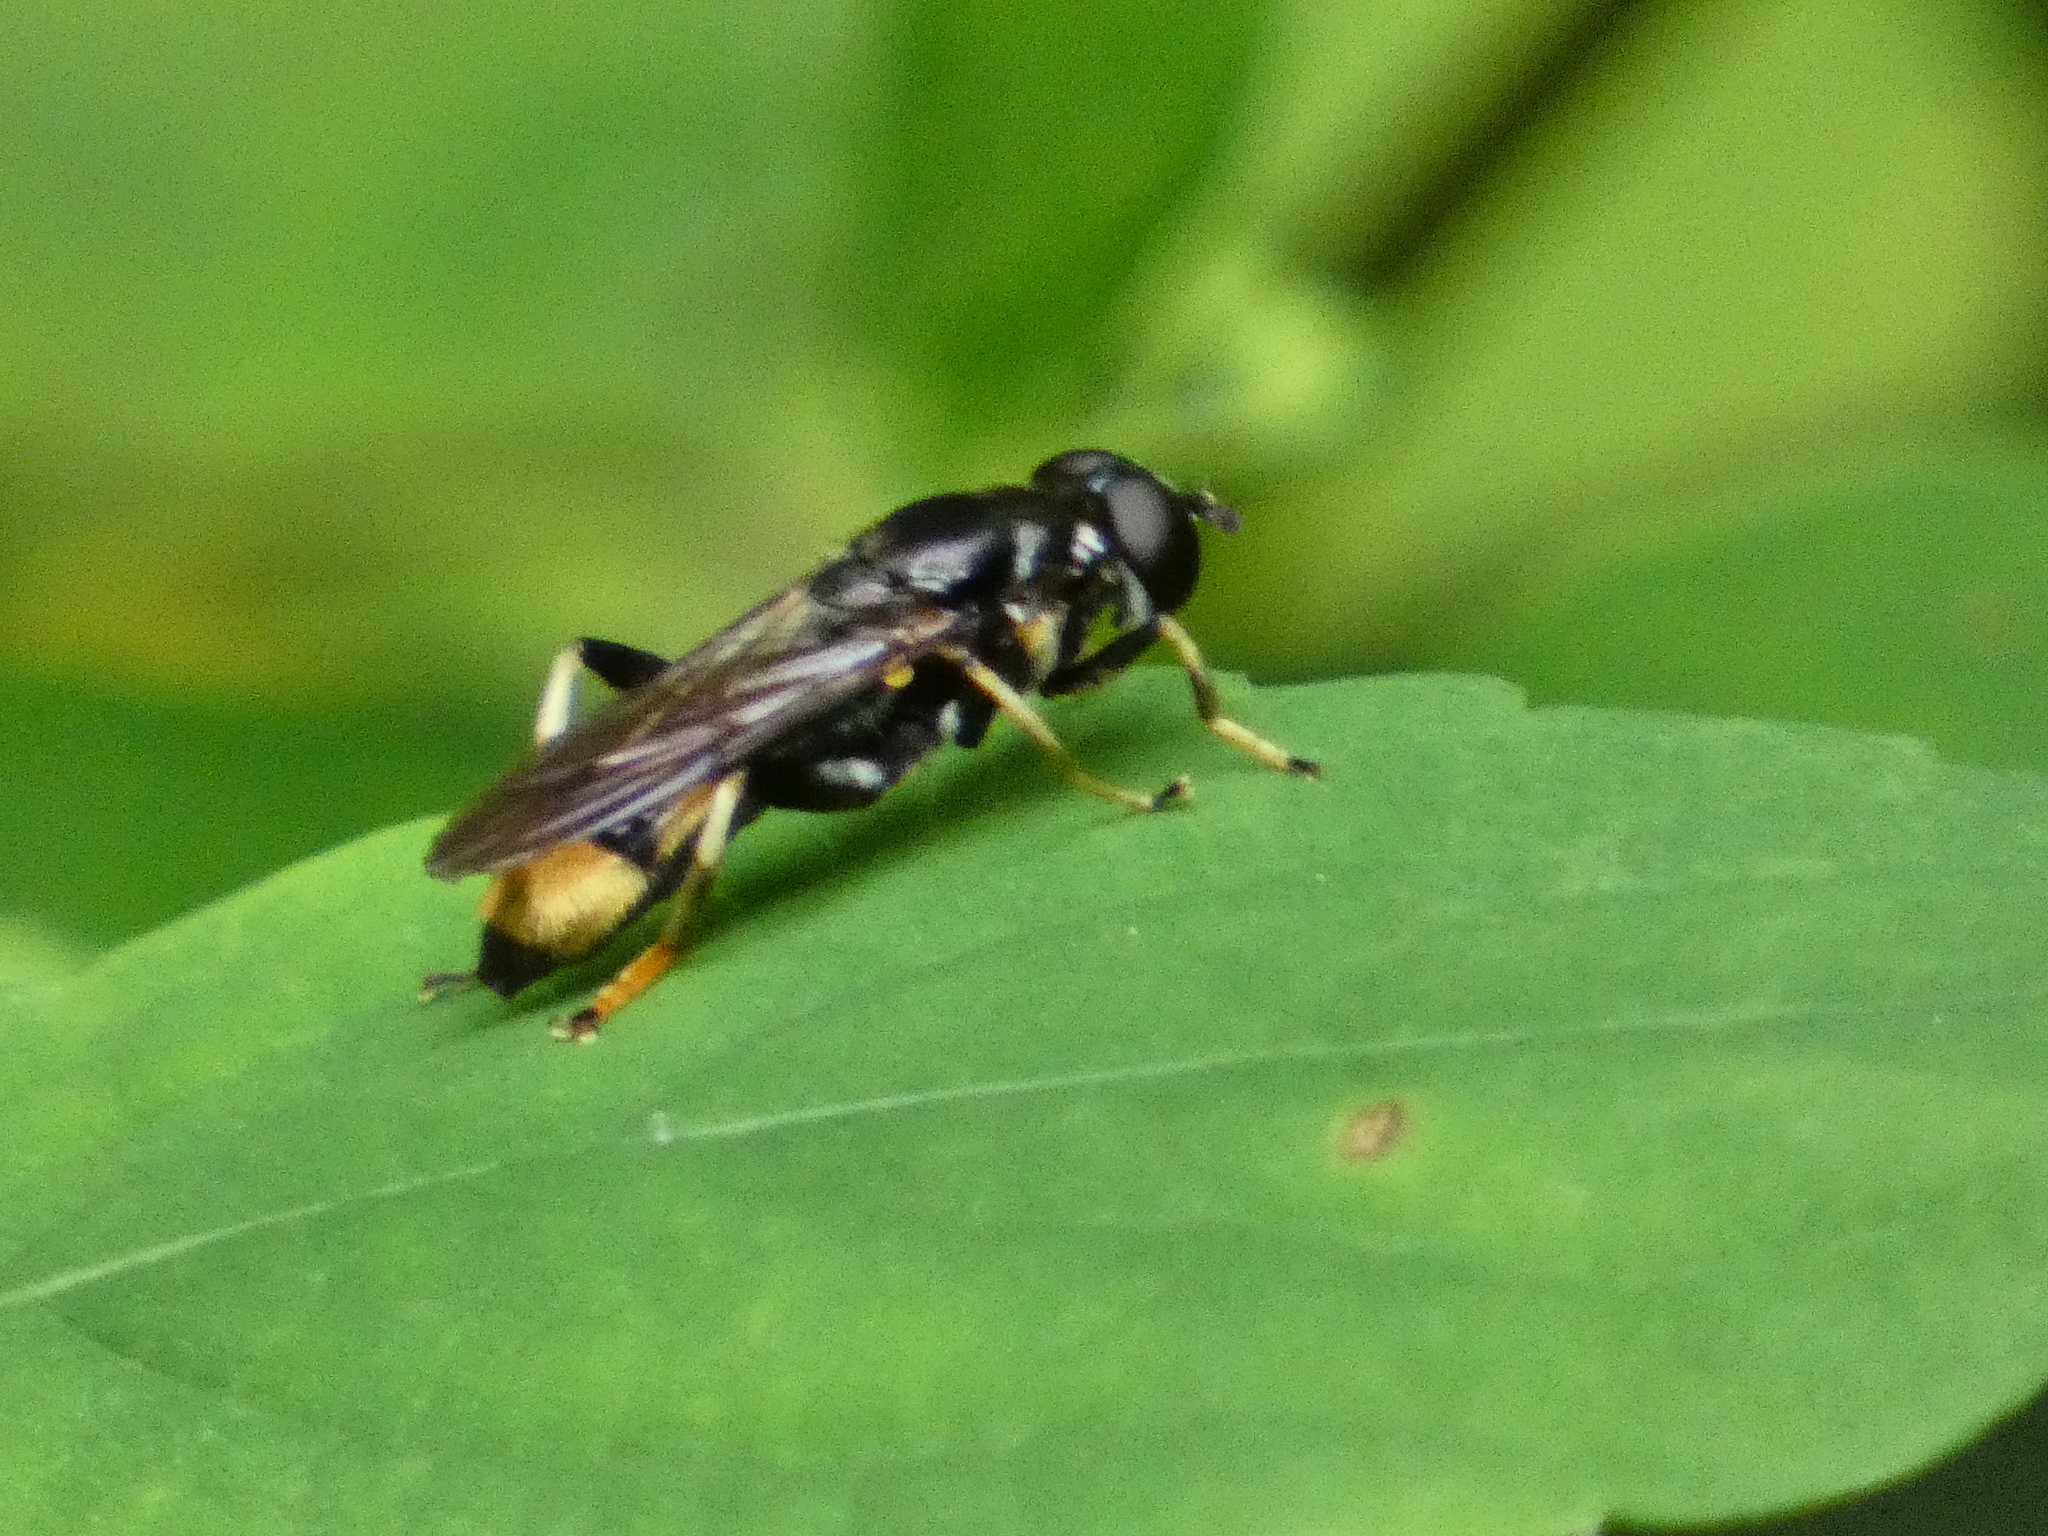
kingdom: Animalia
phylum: Arthropoda
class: Insecta
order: Diptera
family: Syrphidae
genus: Xylota
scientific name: Xylota sylvarum
